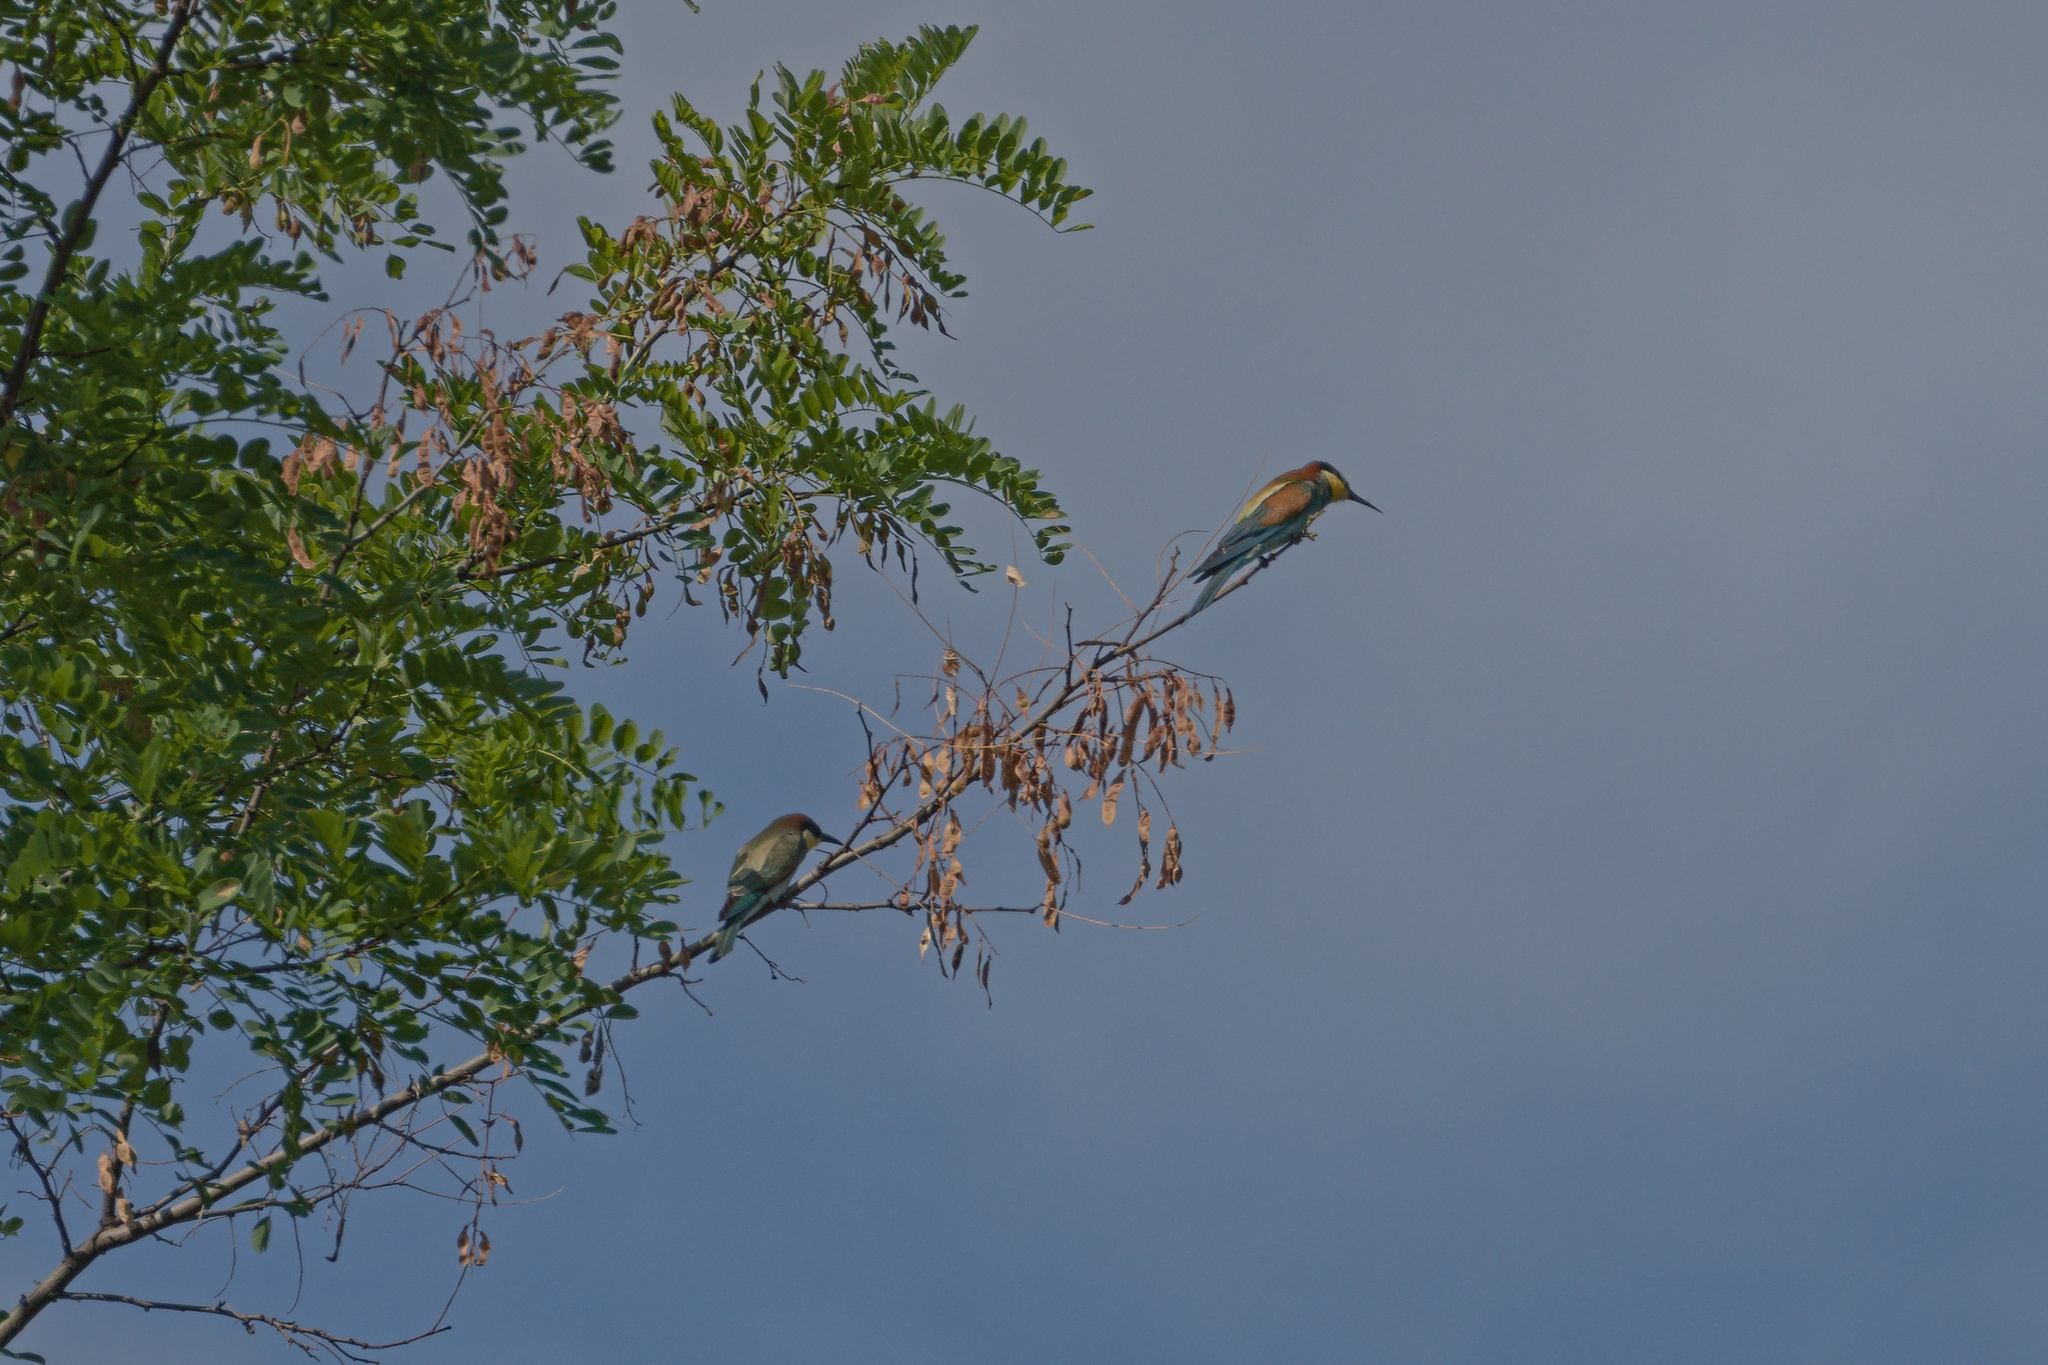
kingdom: Animalia
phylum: Chordata
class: Aves
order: Coraciiformes
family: Meropidae
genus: Merops
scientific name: Merops apiaster
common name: European bee-eater
